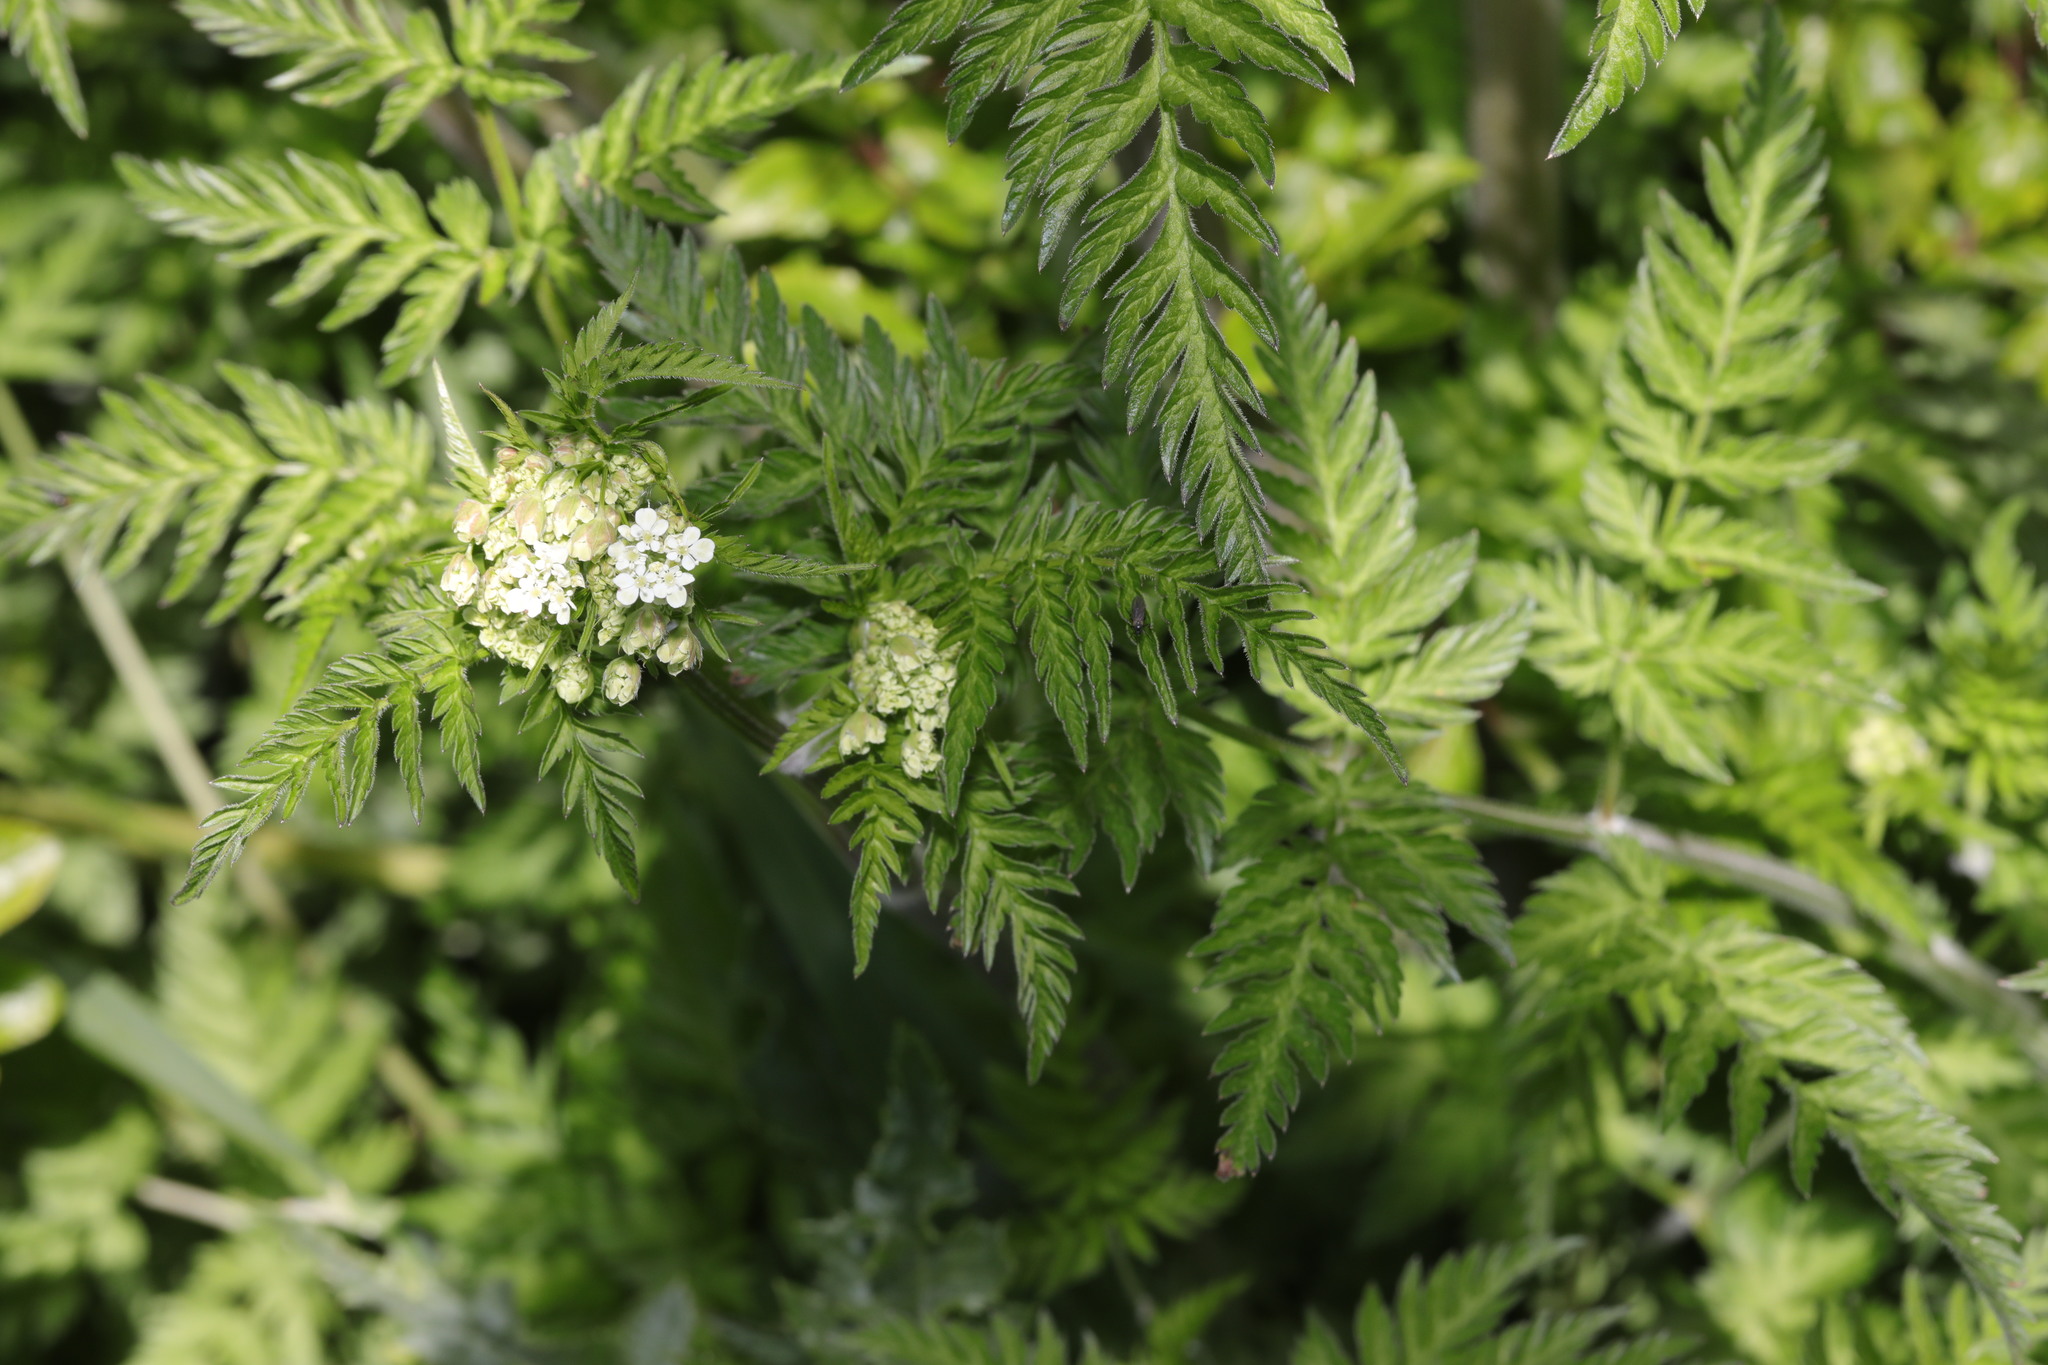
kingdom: Plantae
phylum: Tracheophyta
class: Magnoliopsida
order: Apiales
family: Apiaceae
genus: Anthriscus
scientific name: Anthriscus sylvestris
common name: Cow parsley
